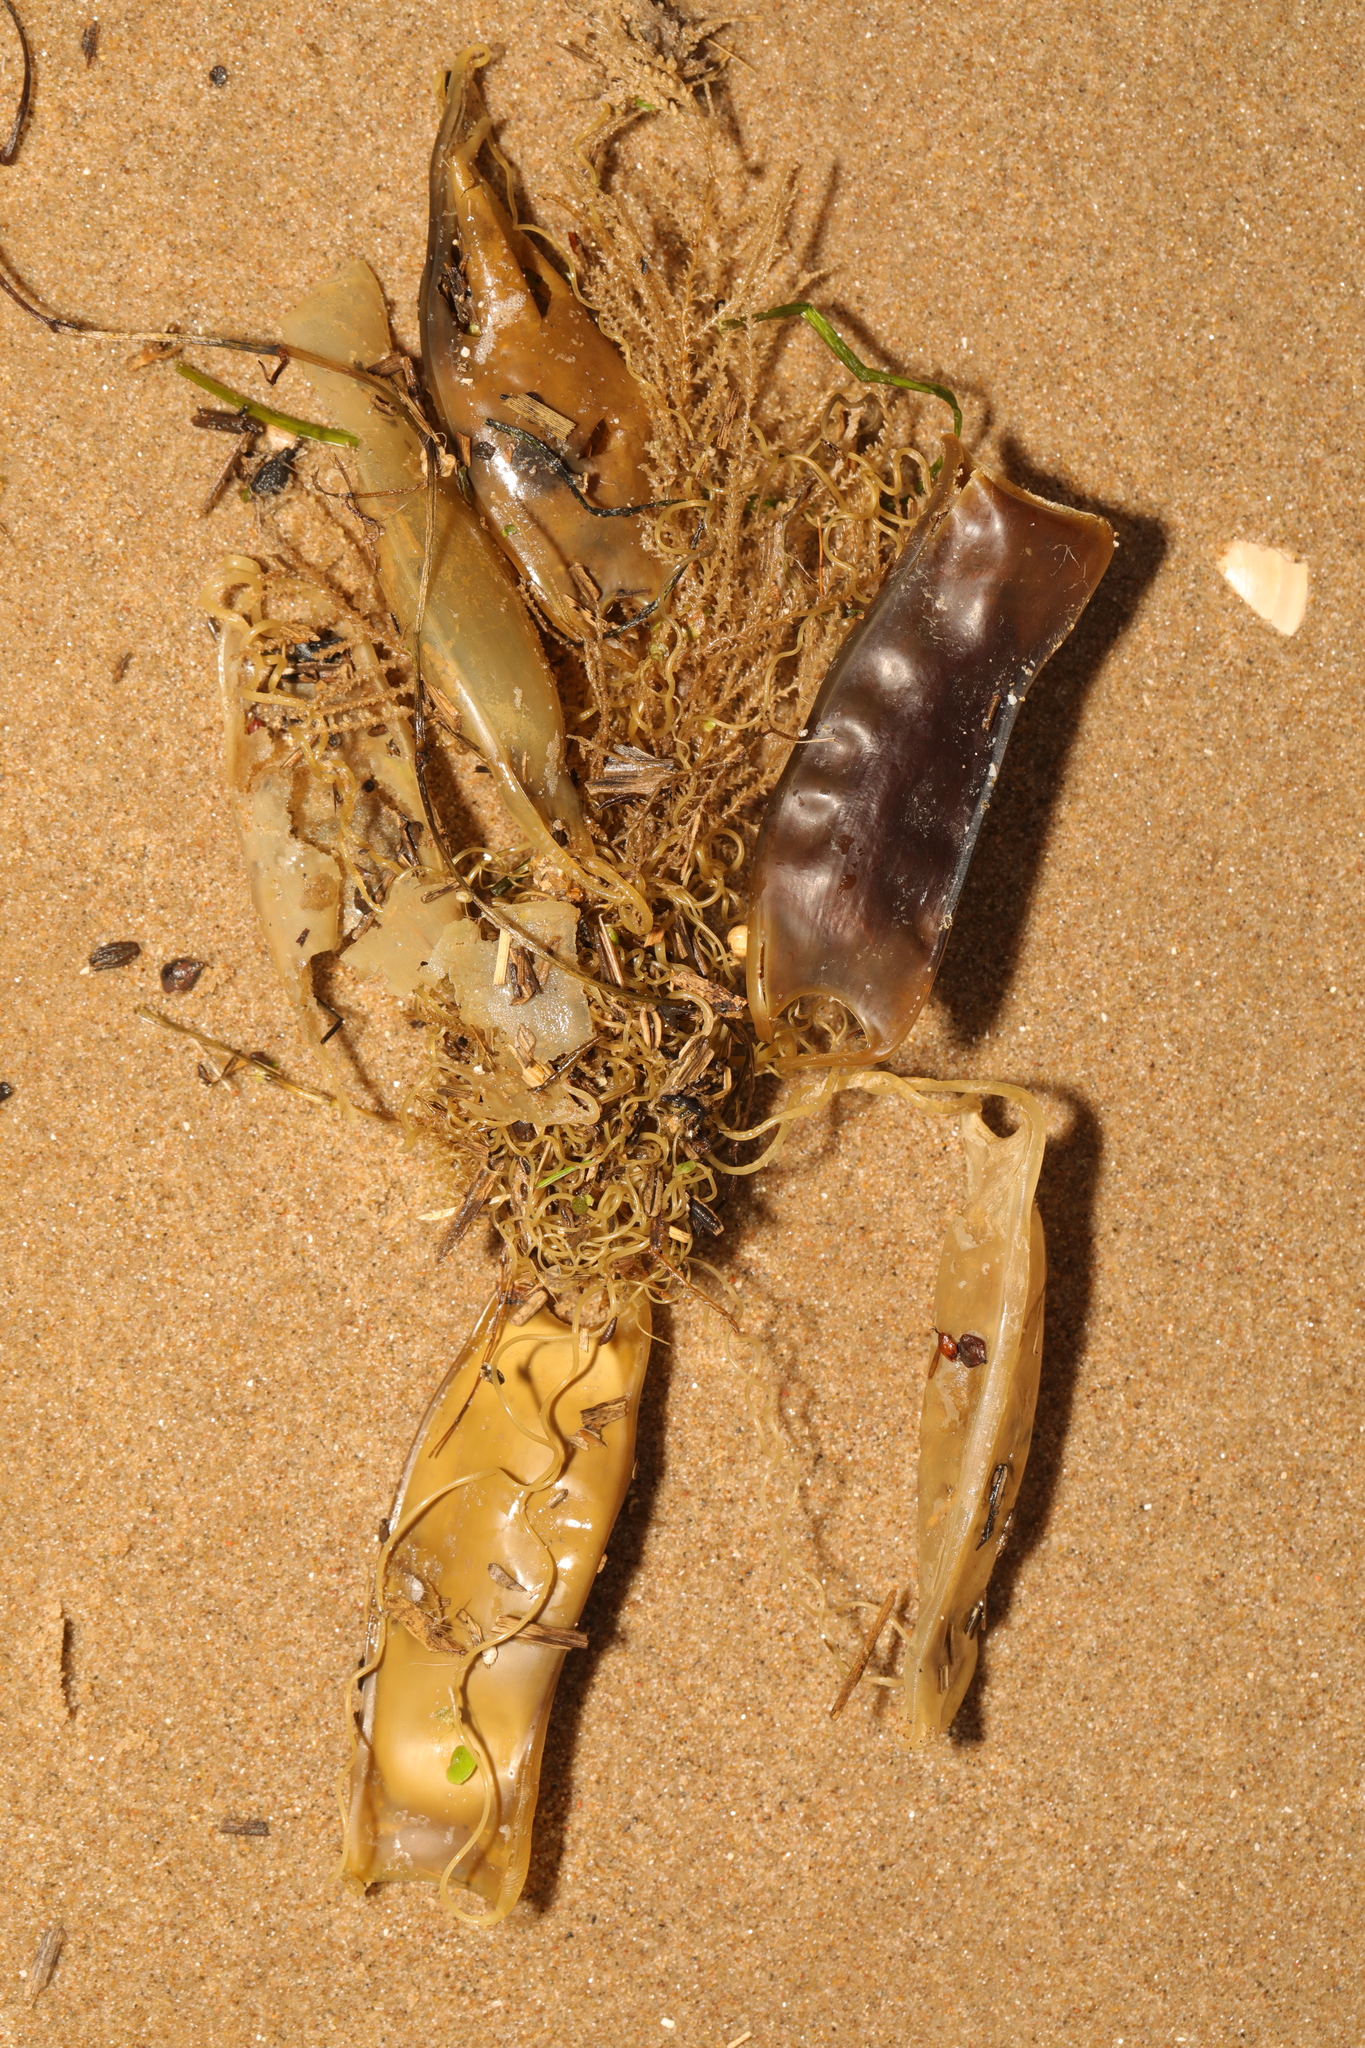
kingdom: Animalia
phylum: Chordata
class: Elasmobranchii
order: Carcharhiniformes
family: Scyliorhinidae
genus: Scyliorhinus
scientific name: Scyliorhinus canicula
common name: Lesser spotted dogfish
